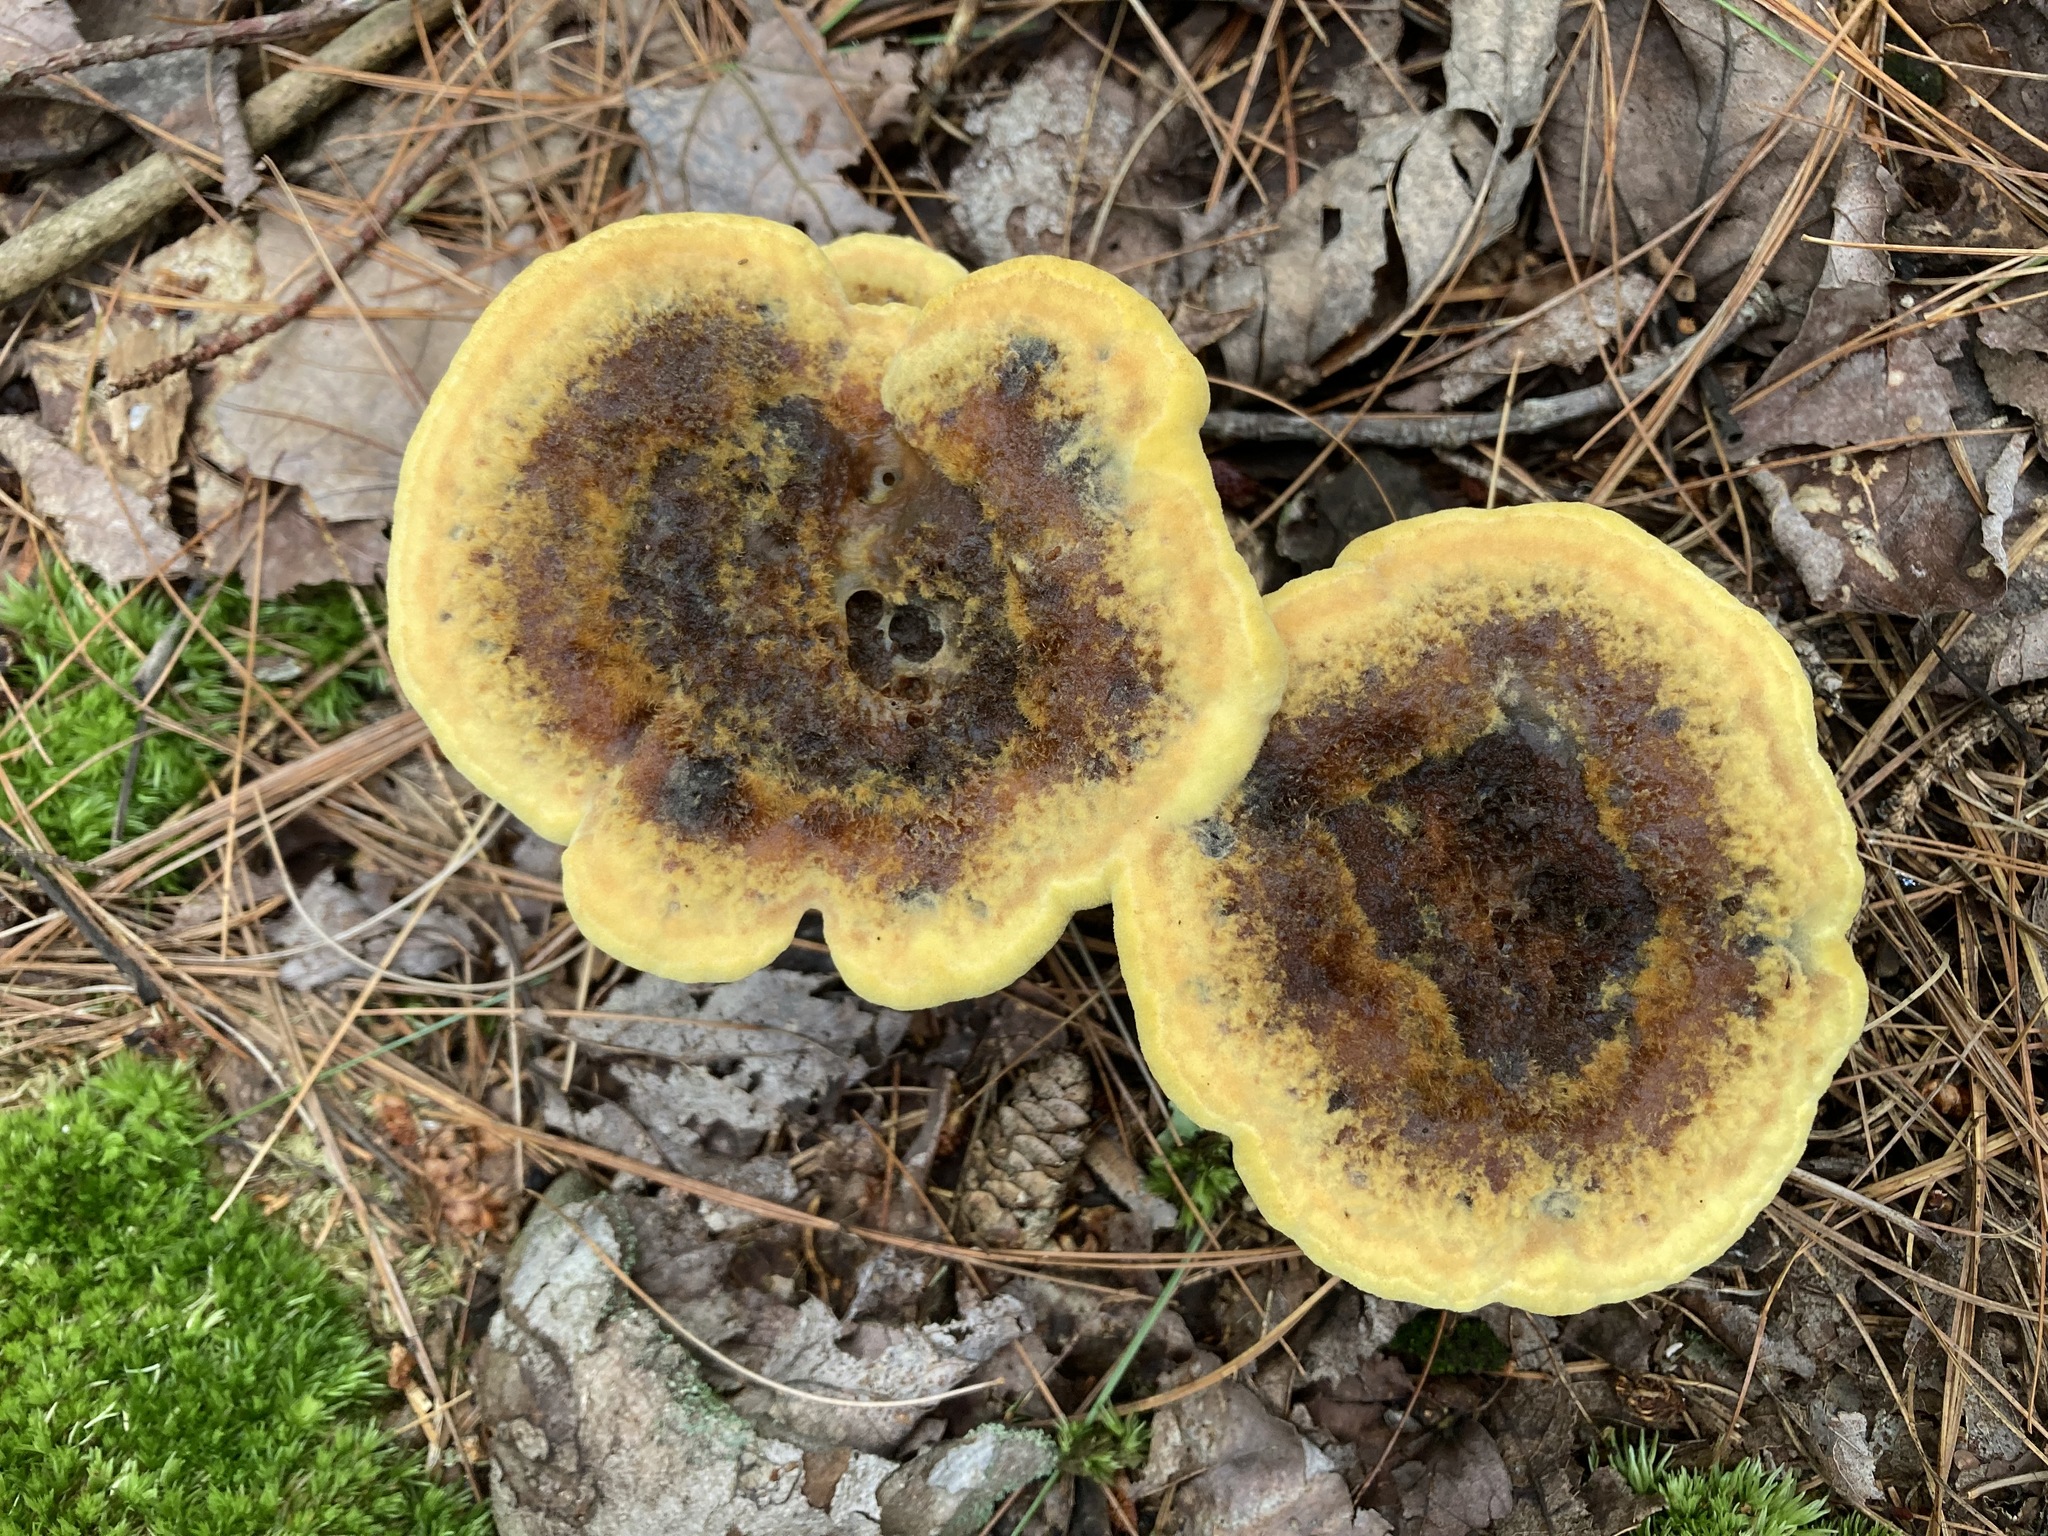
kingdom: Fungi
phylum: Basidiomycota
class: Agaricomycetes
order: Polyporales
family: Laetiporaceae
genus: Phaeolus
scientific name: Phaeolus schweinitzii
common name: Dyer's mazegill
